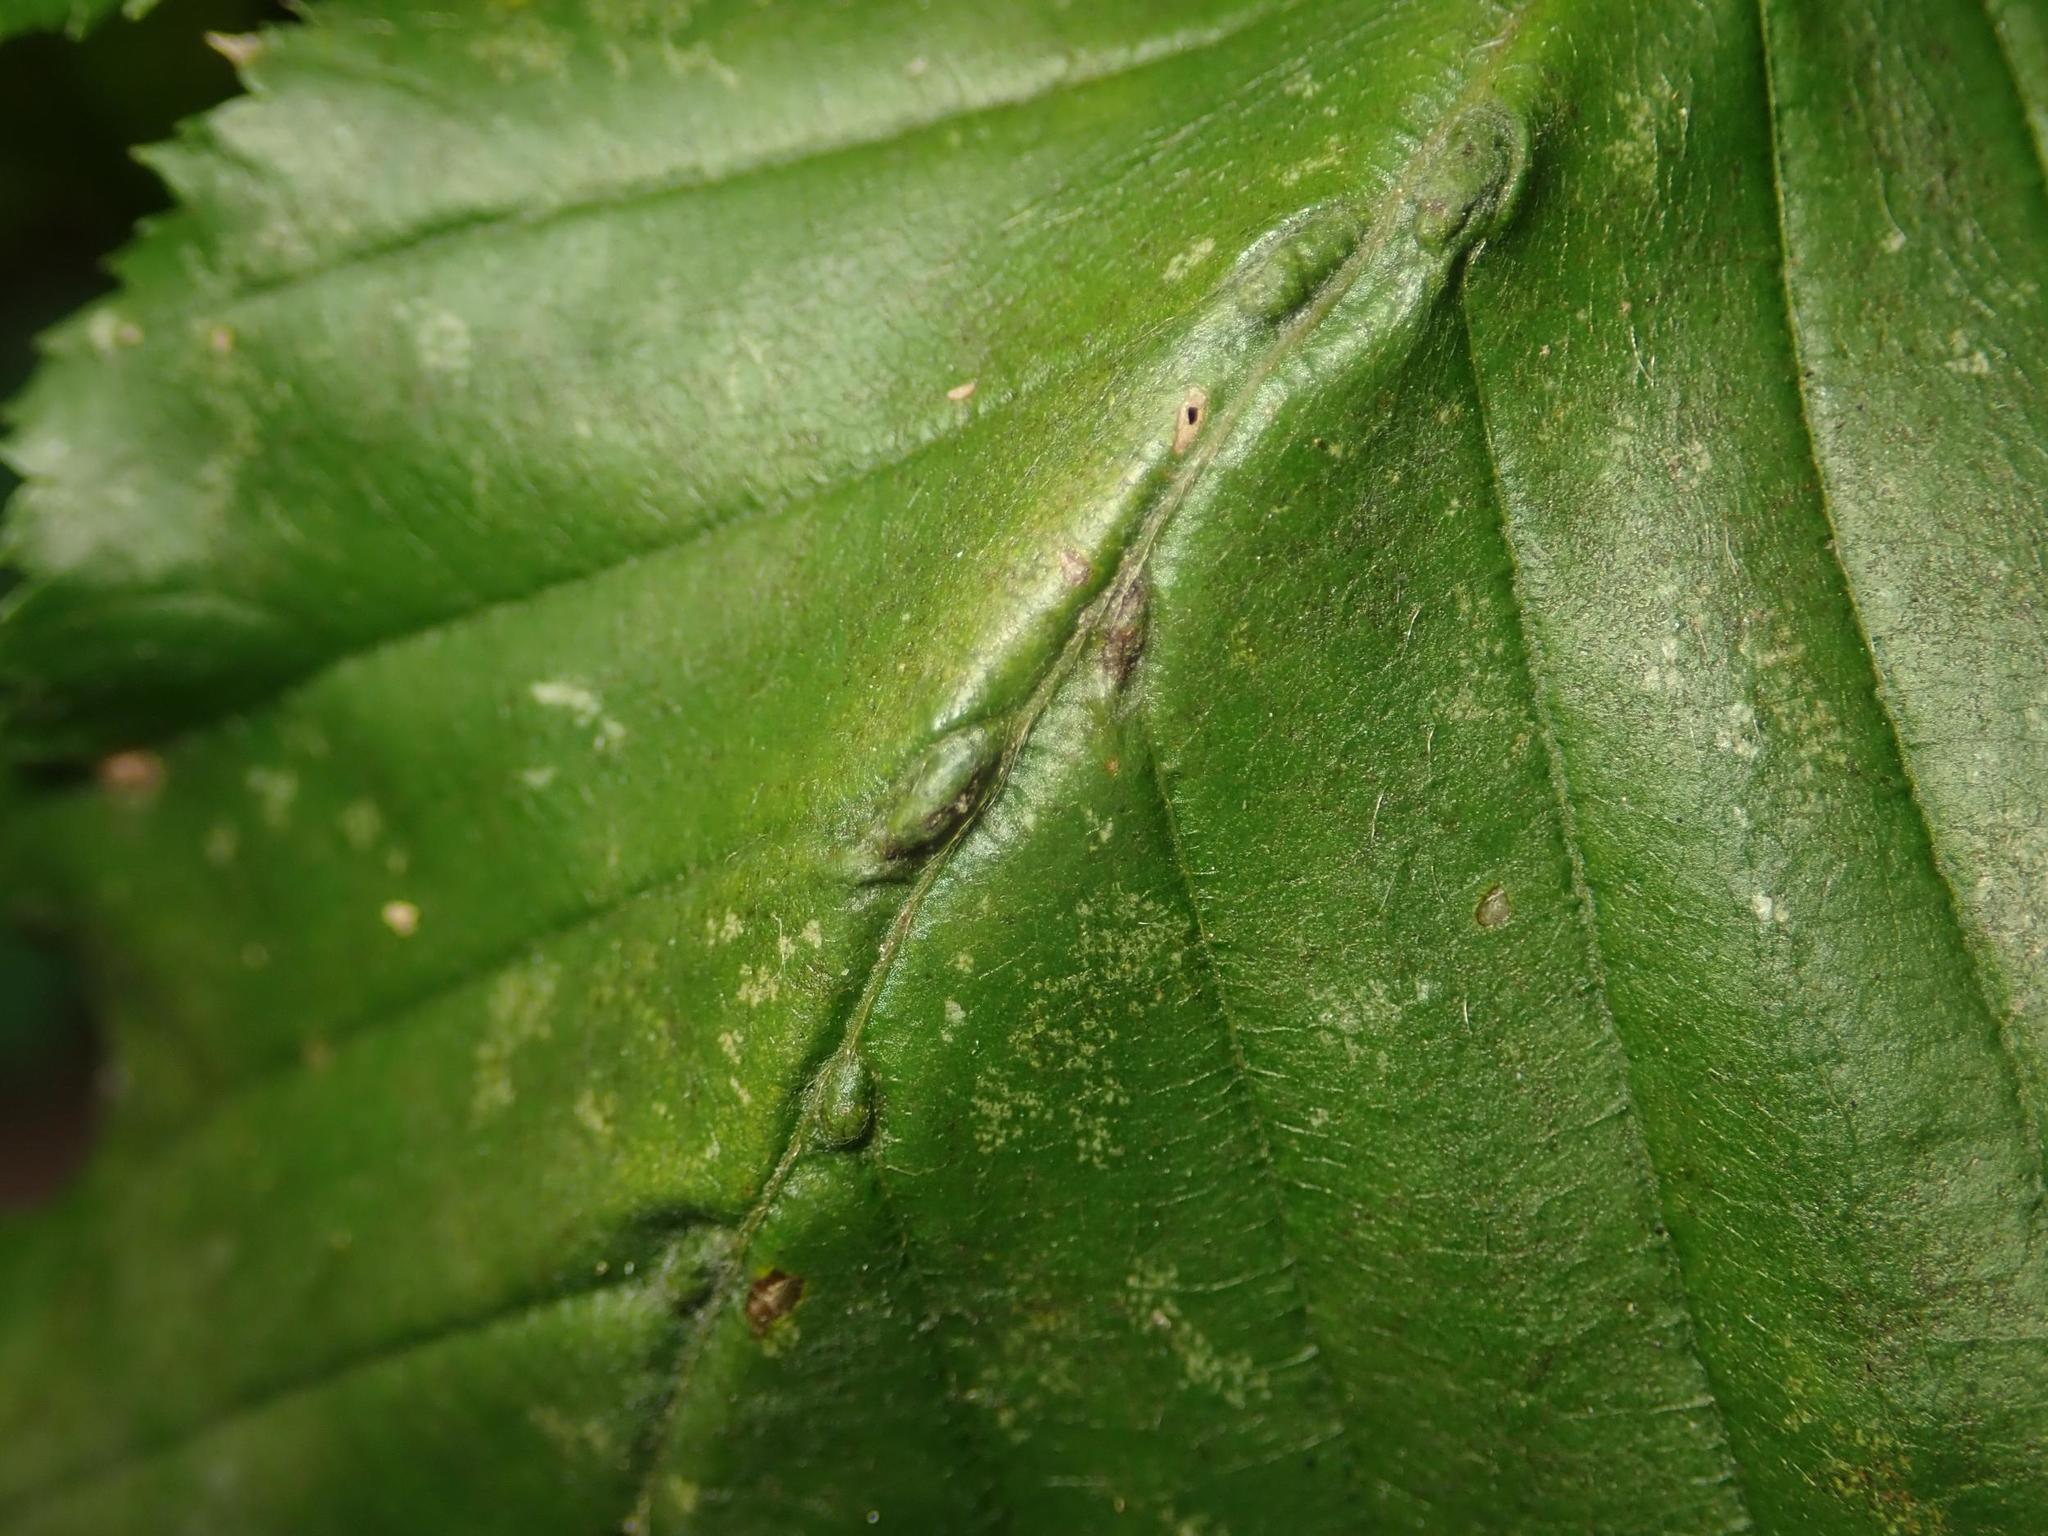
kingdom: Animalia
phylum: Arthropoda
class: Arachnida
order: Trombidiformes
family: Eriophyidae
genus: Aceria
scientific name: Aceria tenellus
